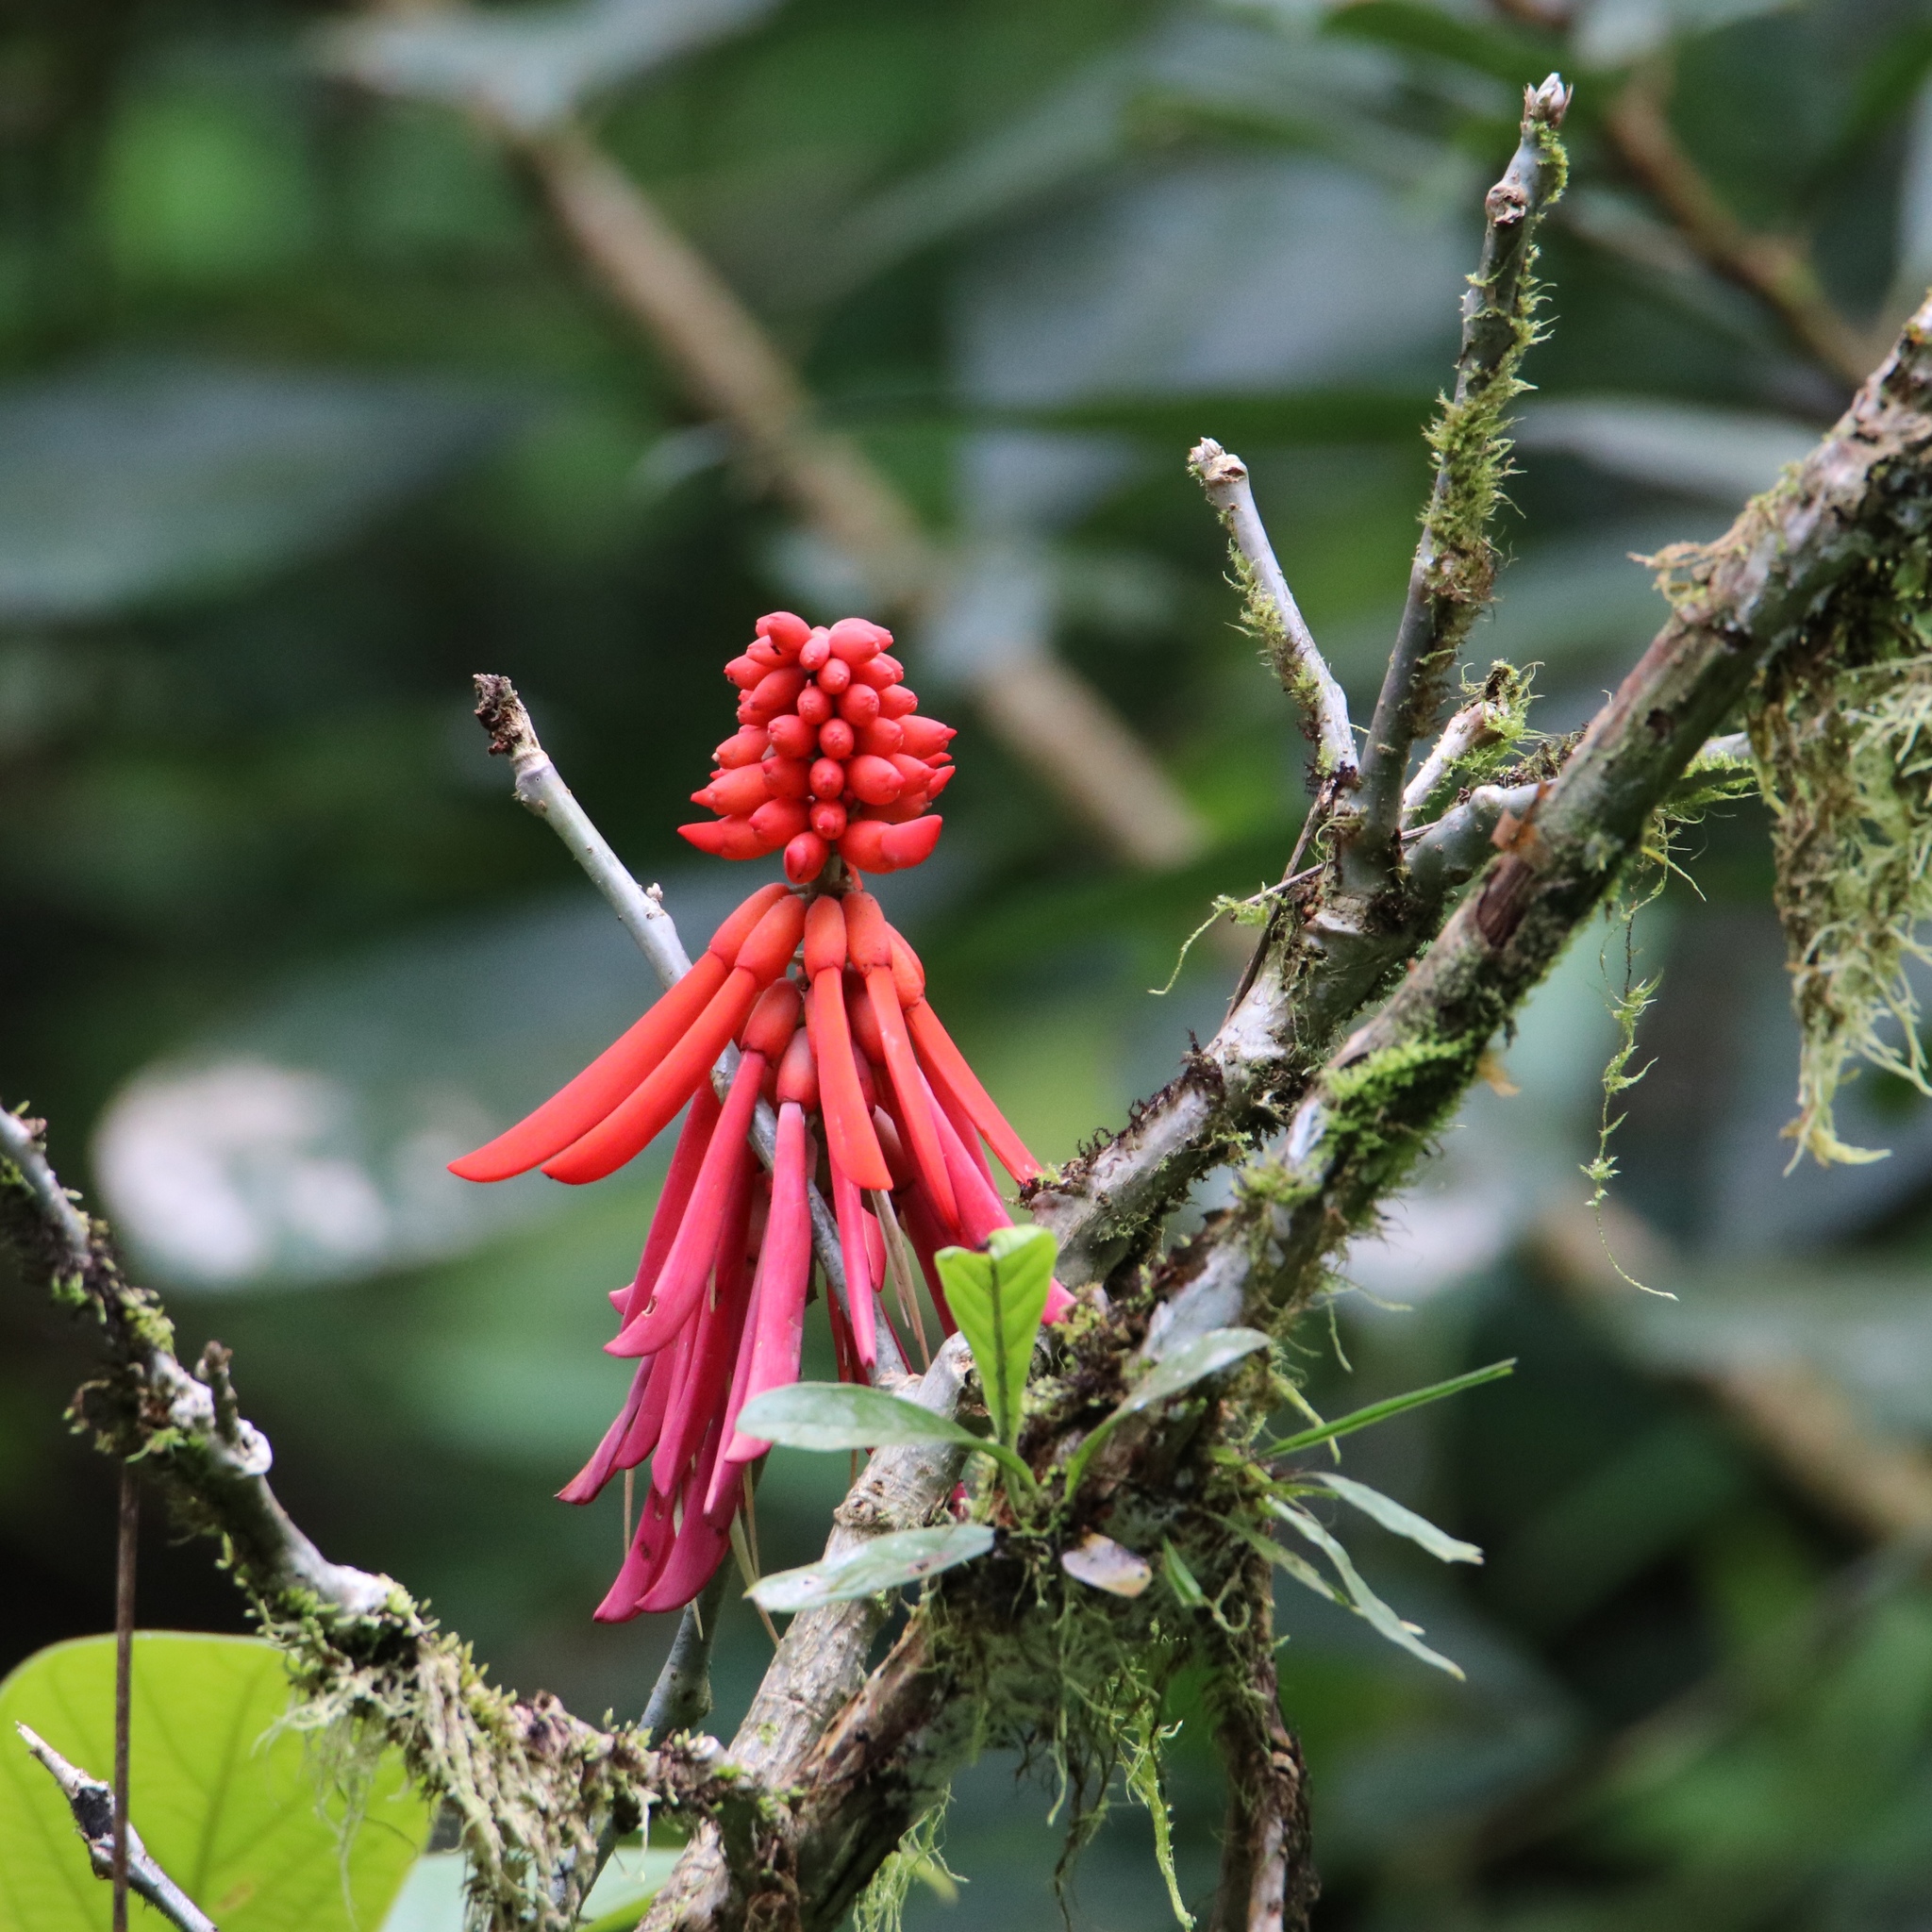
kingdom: Plantae
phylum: Tracheophyta
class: Magnoliopsida
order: Fabales
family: Fabaceae
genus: Erythrina
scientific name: Erythrina americana
